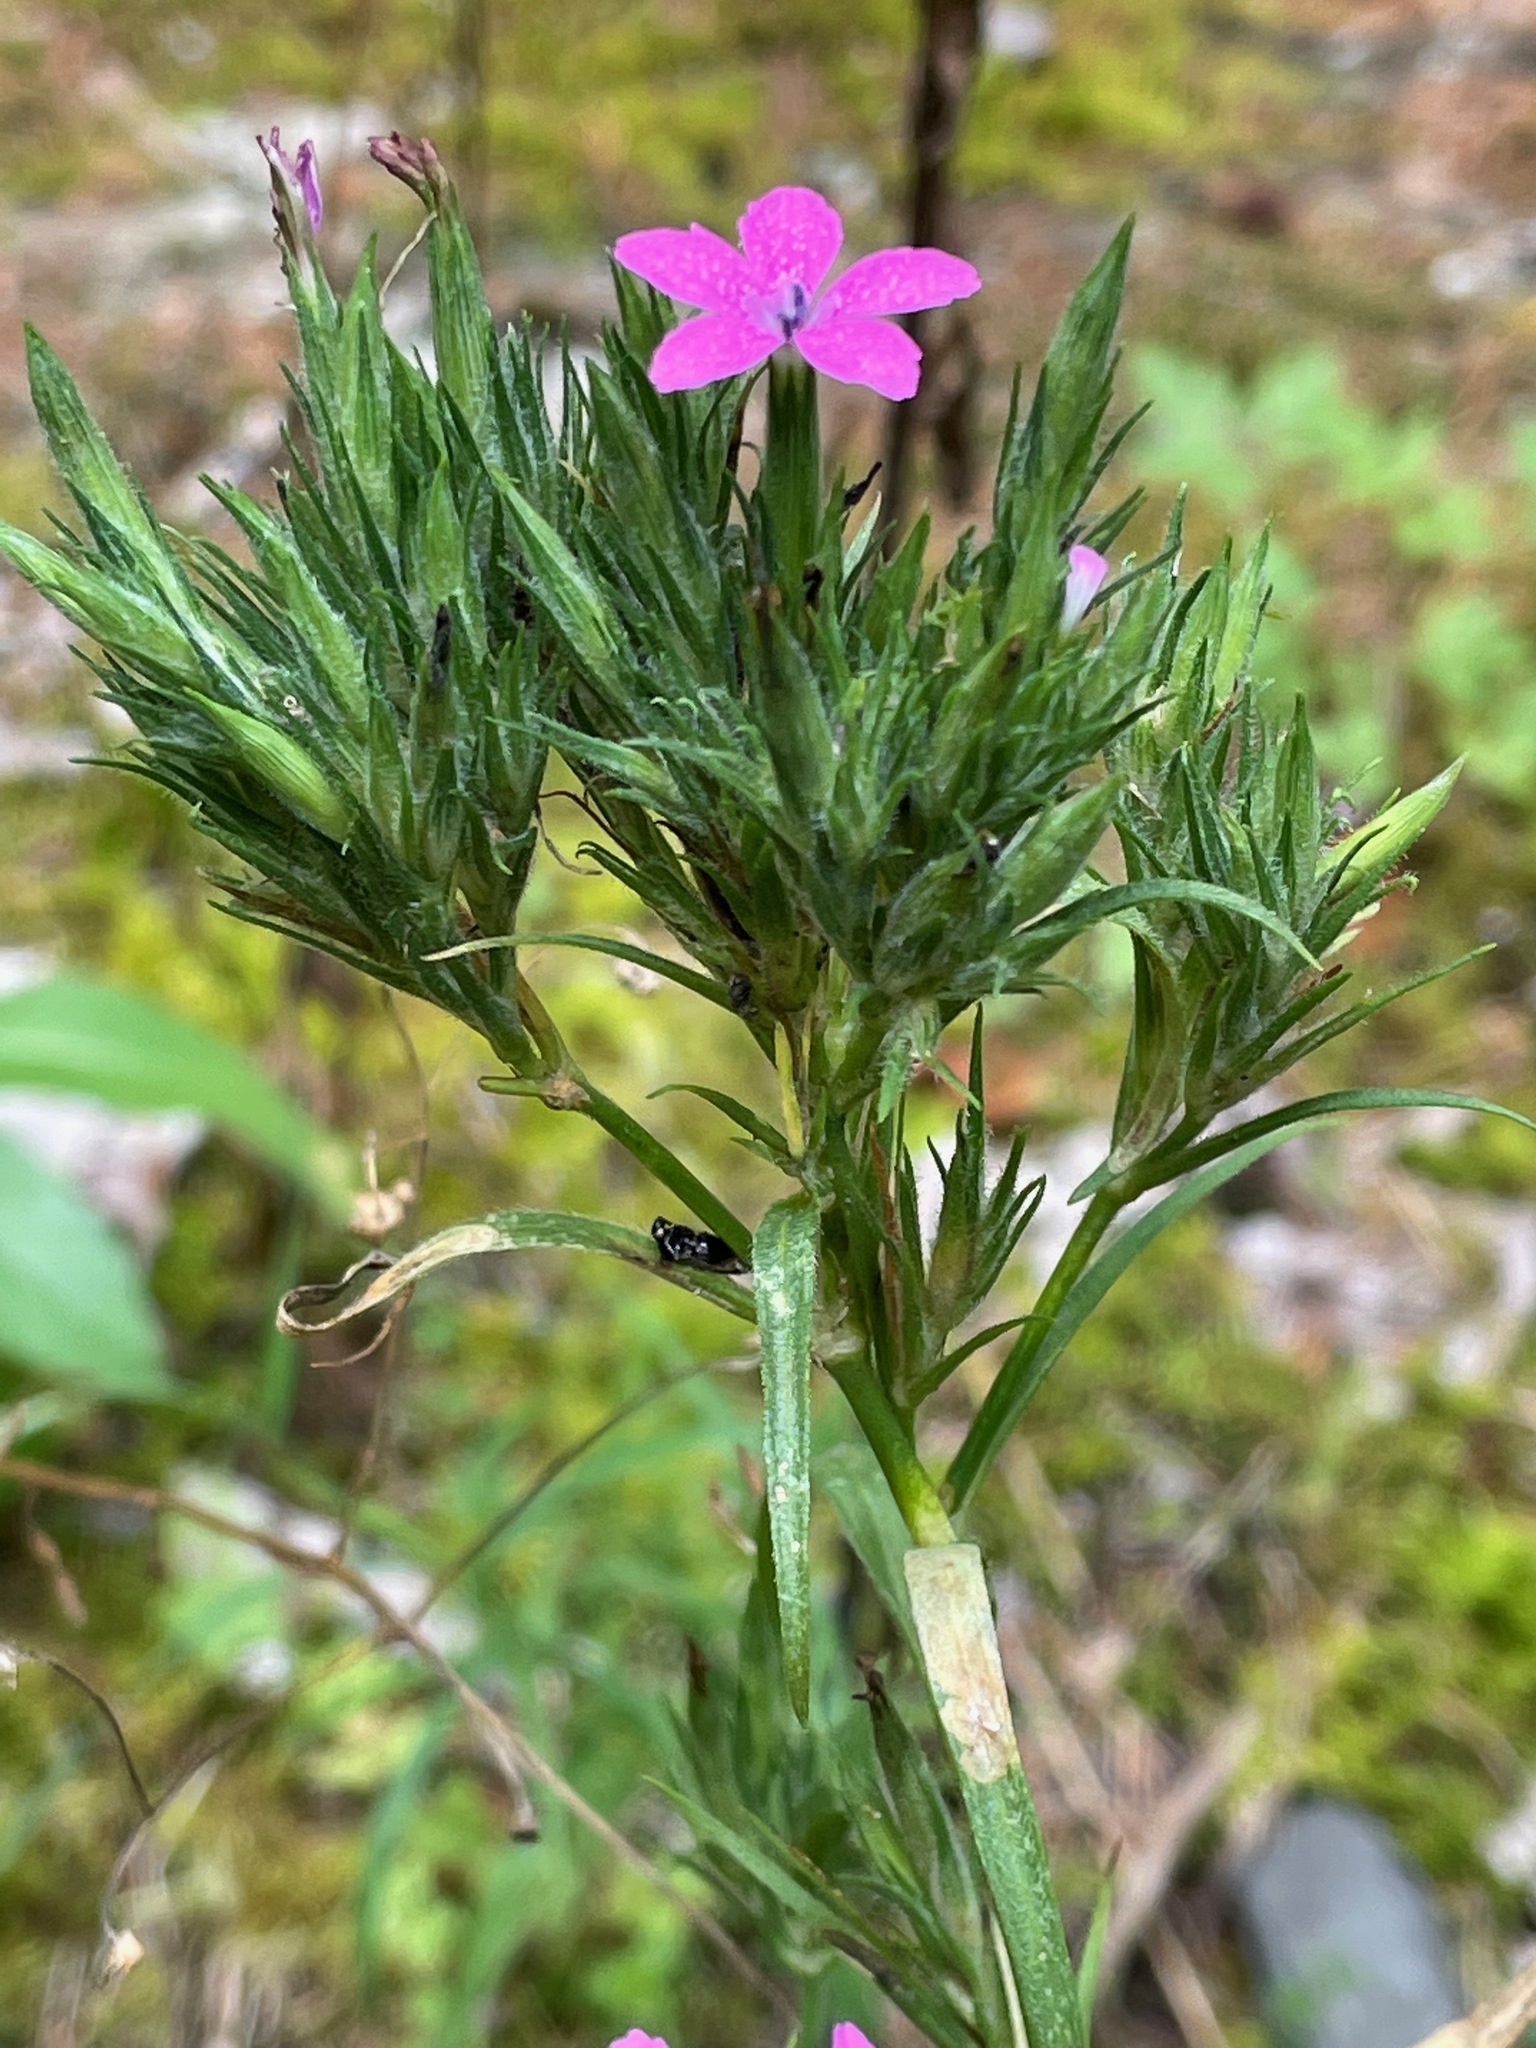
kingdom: Plantae
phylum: Tracheophyta
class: Magnoliopsida
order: Caryophyllales
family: Caryophyllaceae
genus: Dianthus
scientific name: Dianthus armeria
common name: Deptford pink
